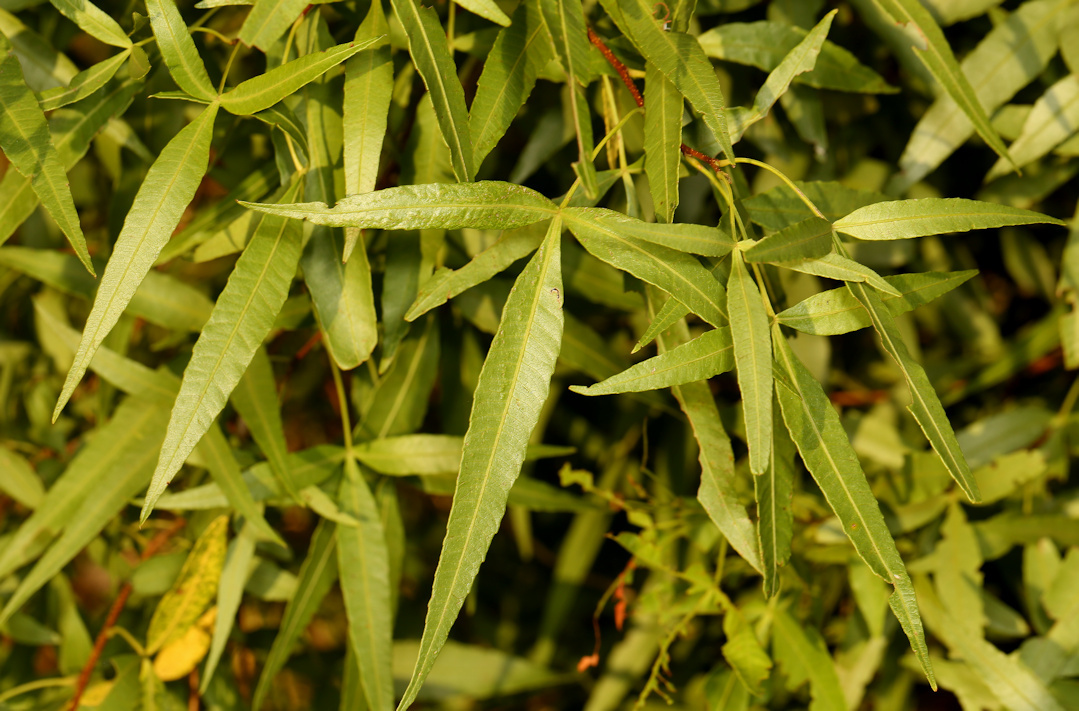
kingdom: Plantae
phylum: Tracheophyta
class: Magnoliopsida
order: Sapindales
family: Anacardiaceae
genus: Searsia
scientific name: Searsia leptodictya
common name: Mountain karee
